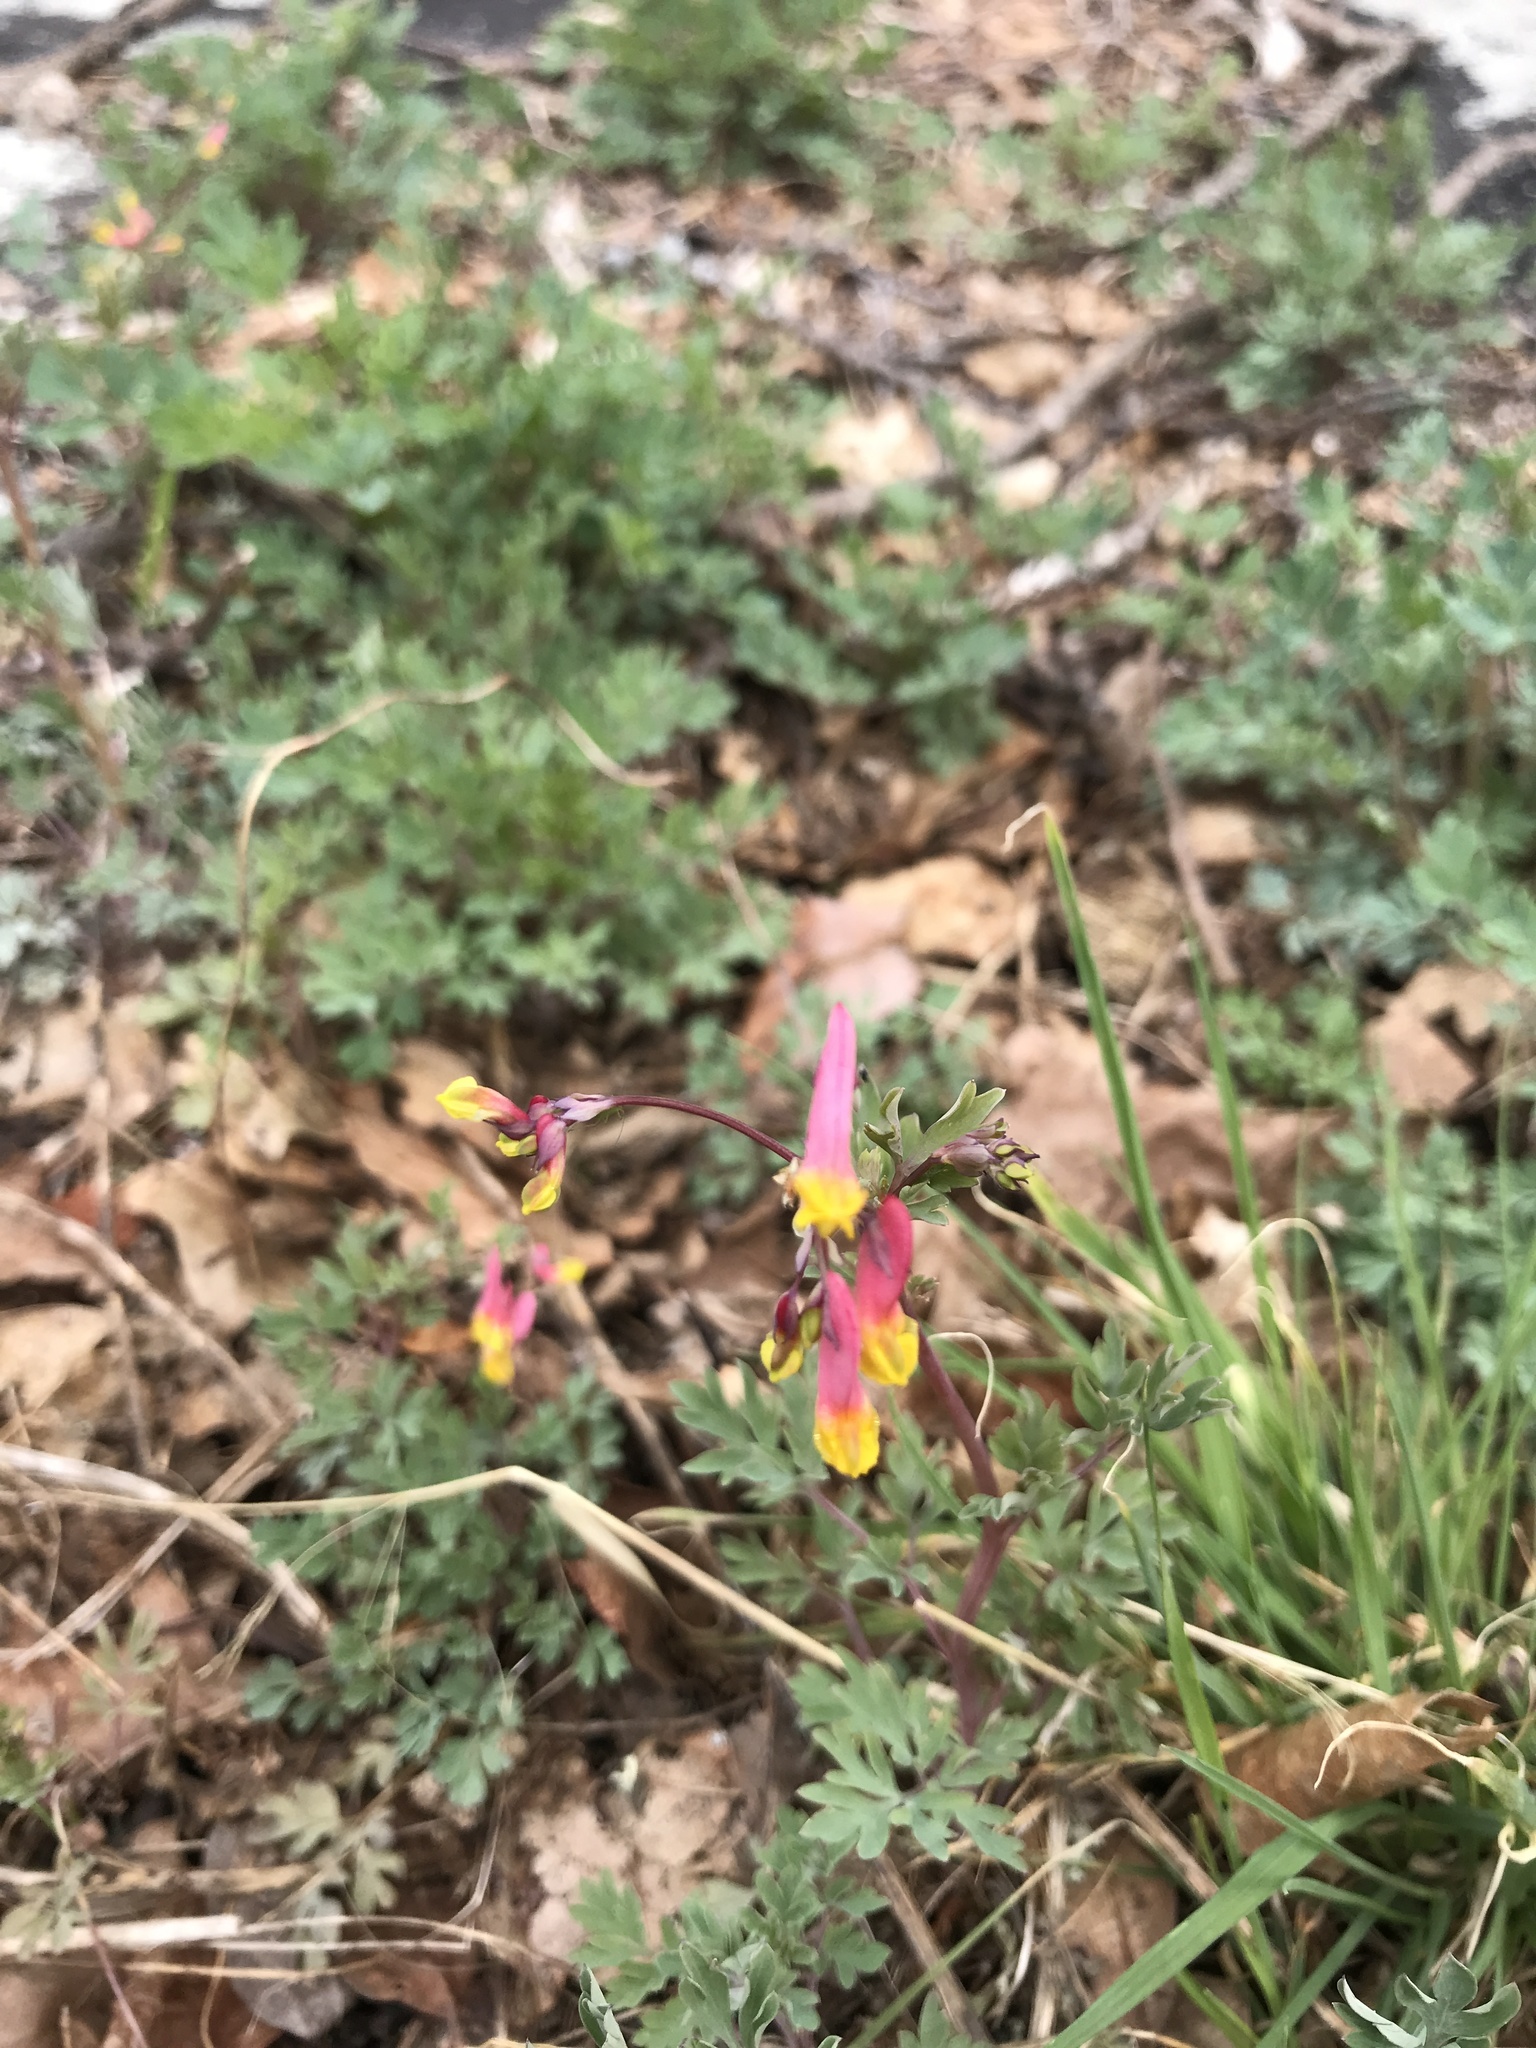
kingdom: Plantae
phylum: Tracheophyta
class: Magnoliopsida
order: Ranunculales
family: Papaveraceae
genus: Capnoides
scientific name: Capnoides sempervirens
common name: Rock harlequin
